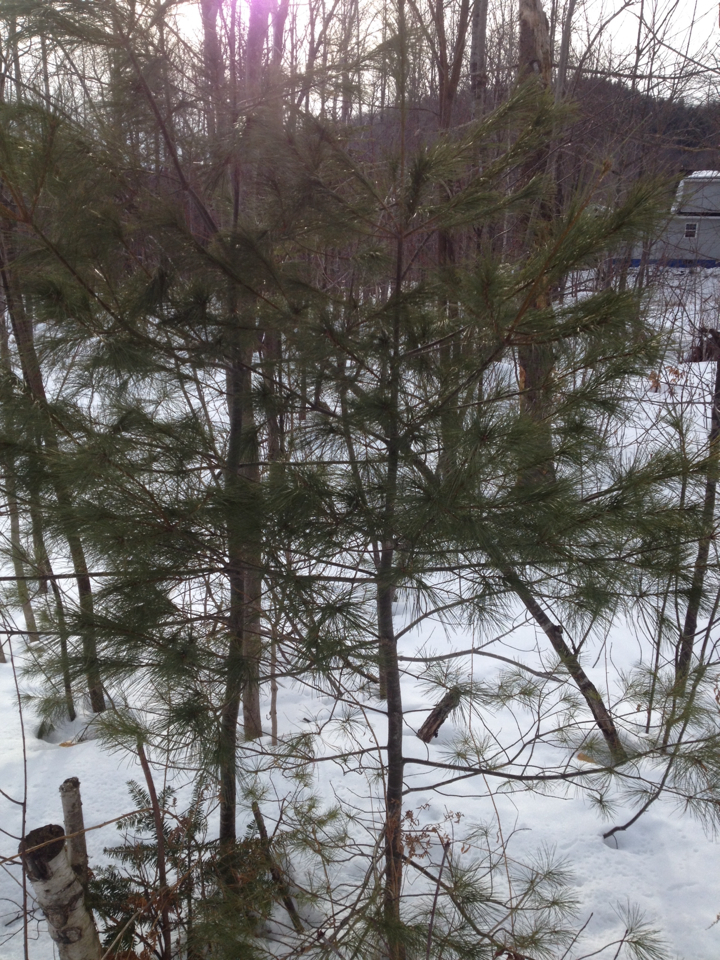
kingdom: Plantae
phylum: Tracheophyta
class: Pinopsida
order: Pinales
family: Pinaceae
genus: Pinus
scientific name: Pinus strobus
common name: Weymouth pine
